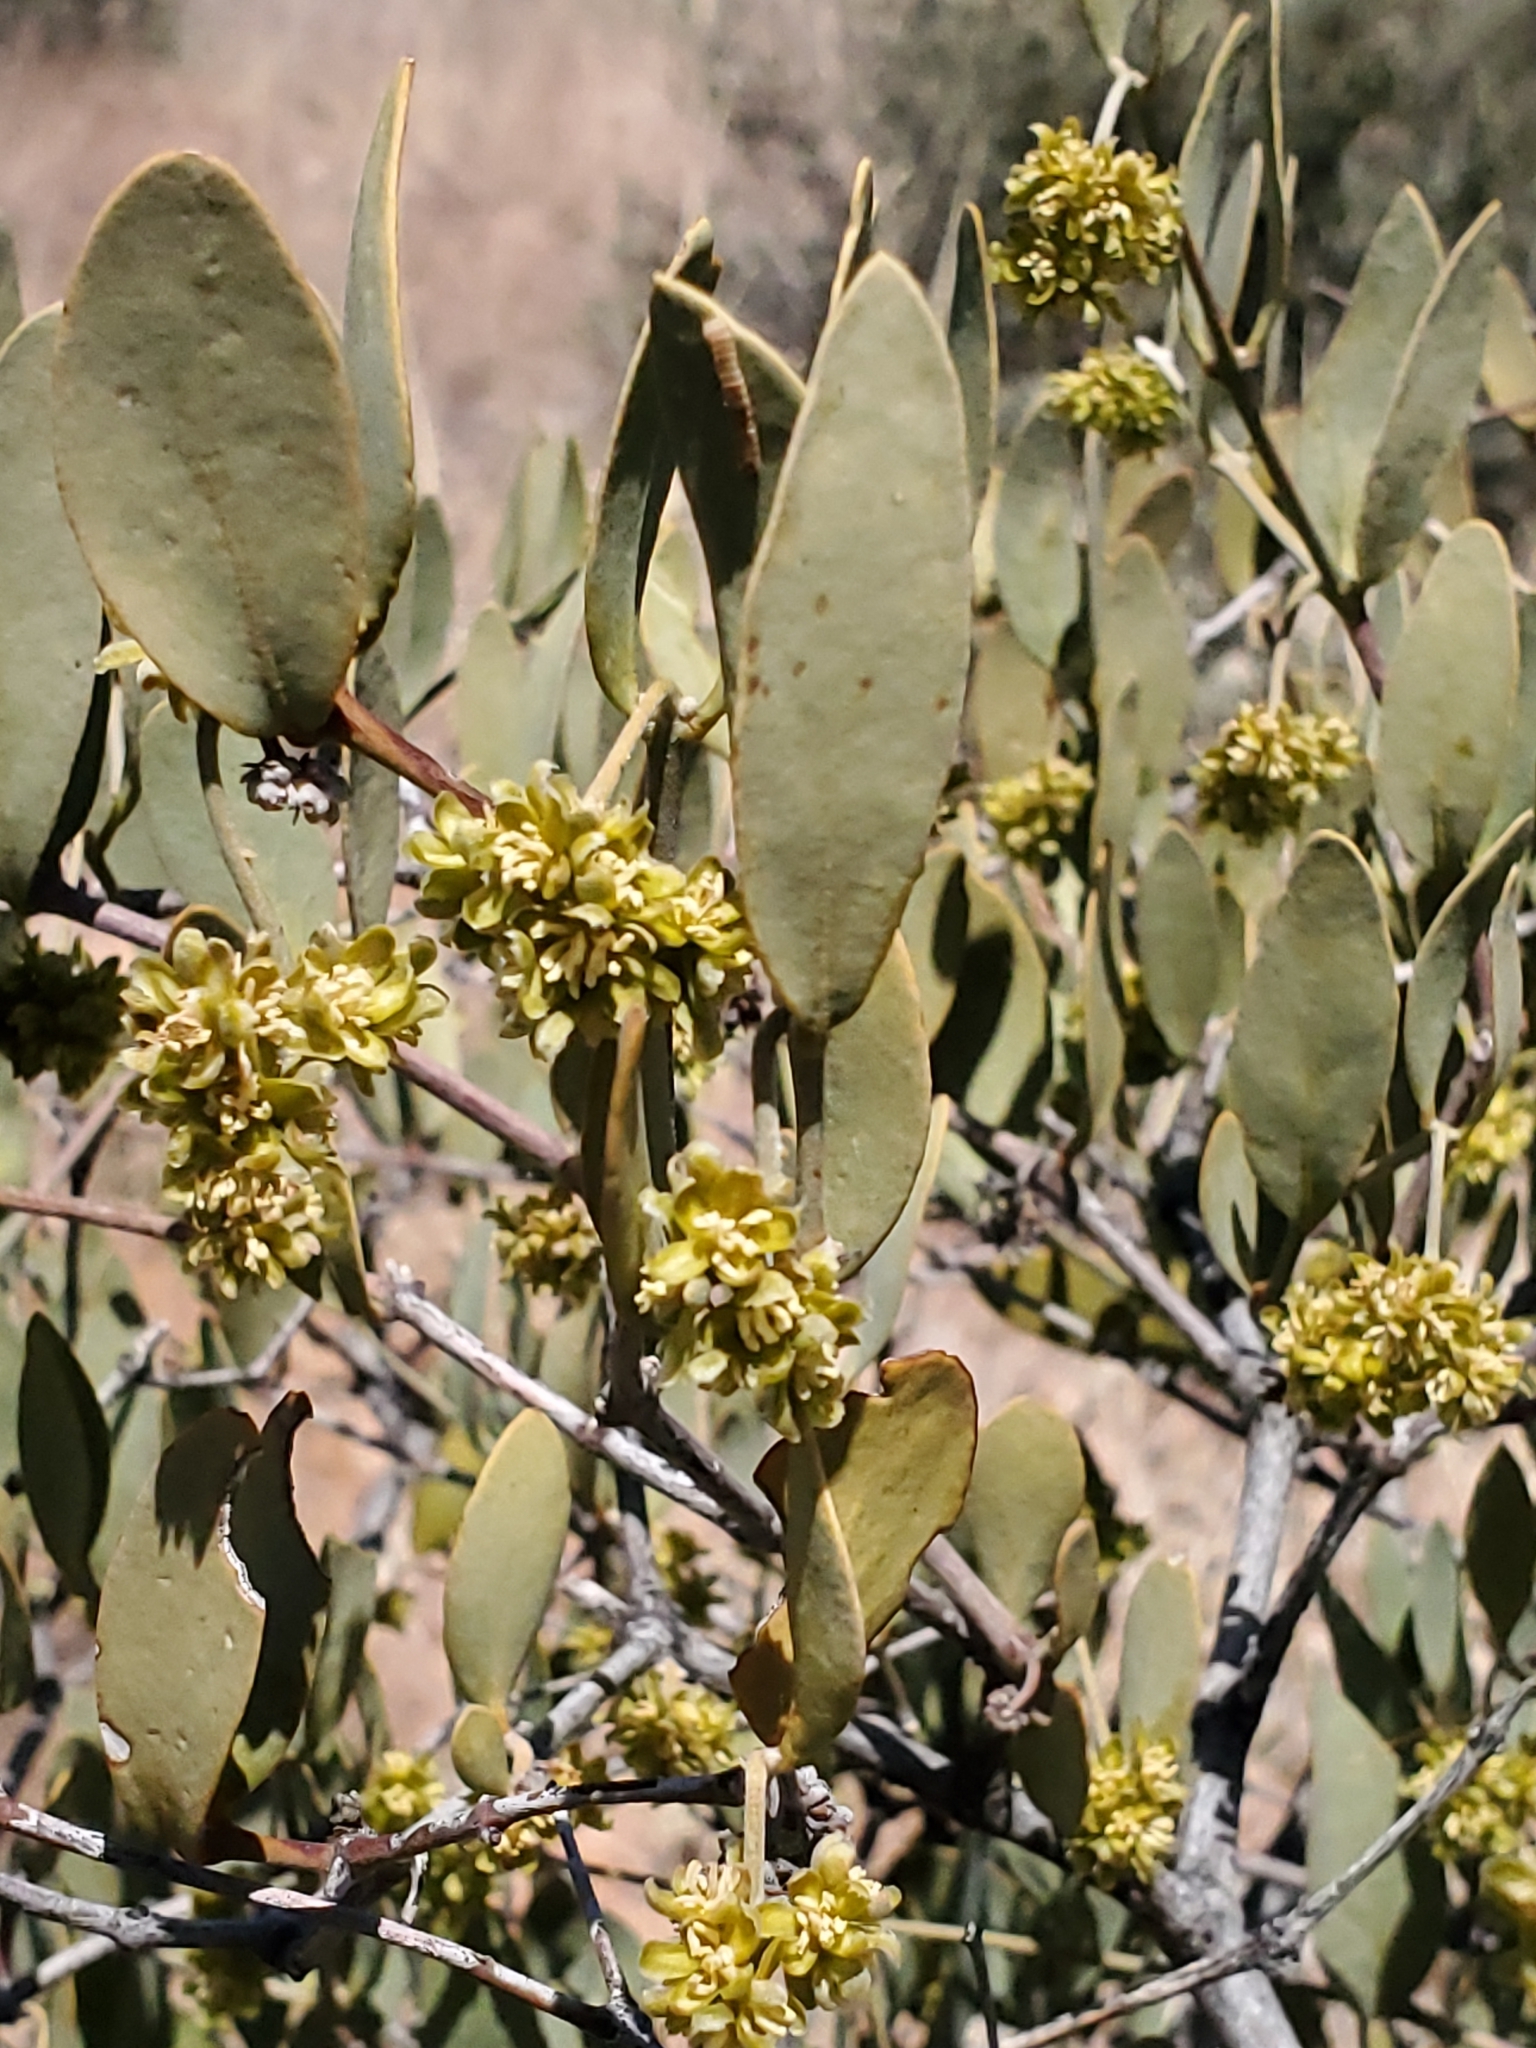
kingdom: Plantae
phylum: Tracheophyta
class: Magnoliopsida
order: Caryophyllales
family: Simmondsiaceae
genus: Simmondsia
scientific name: Simmondsia chinensis
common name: Jojoba
